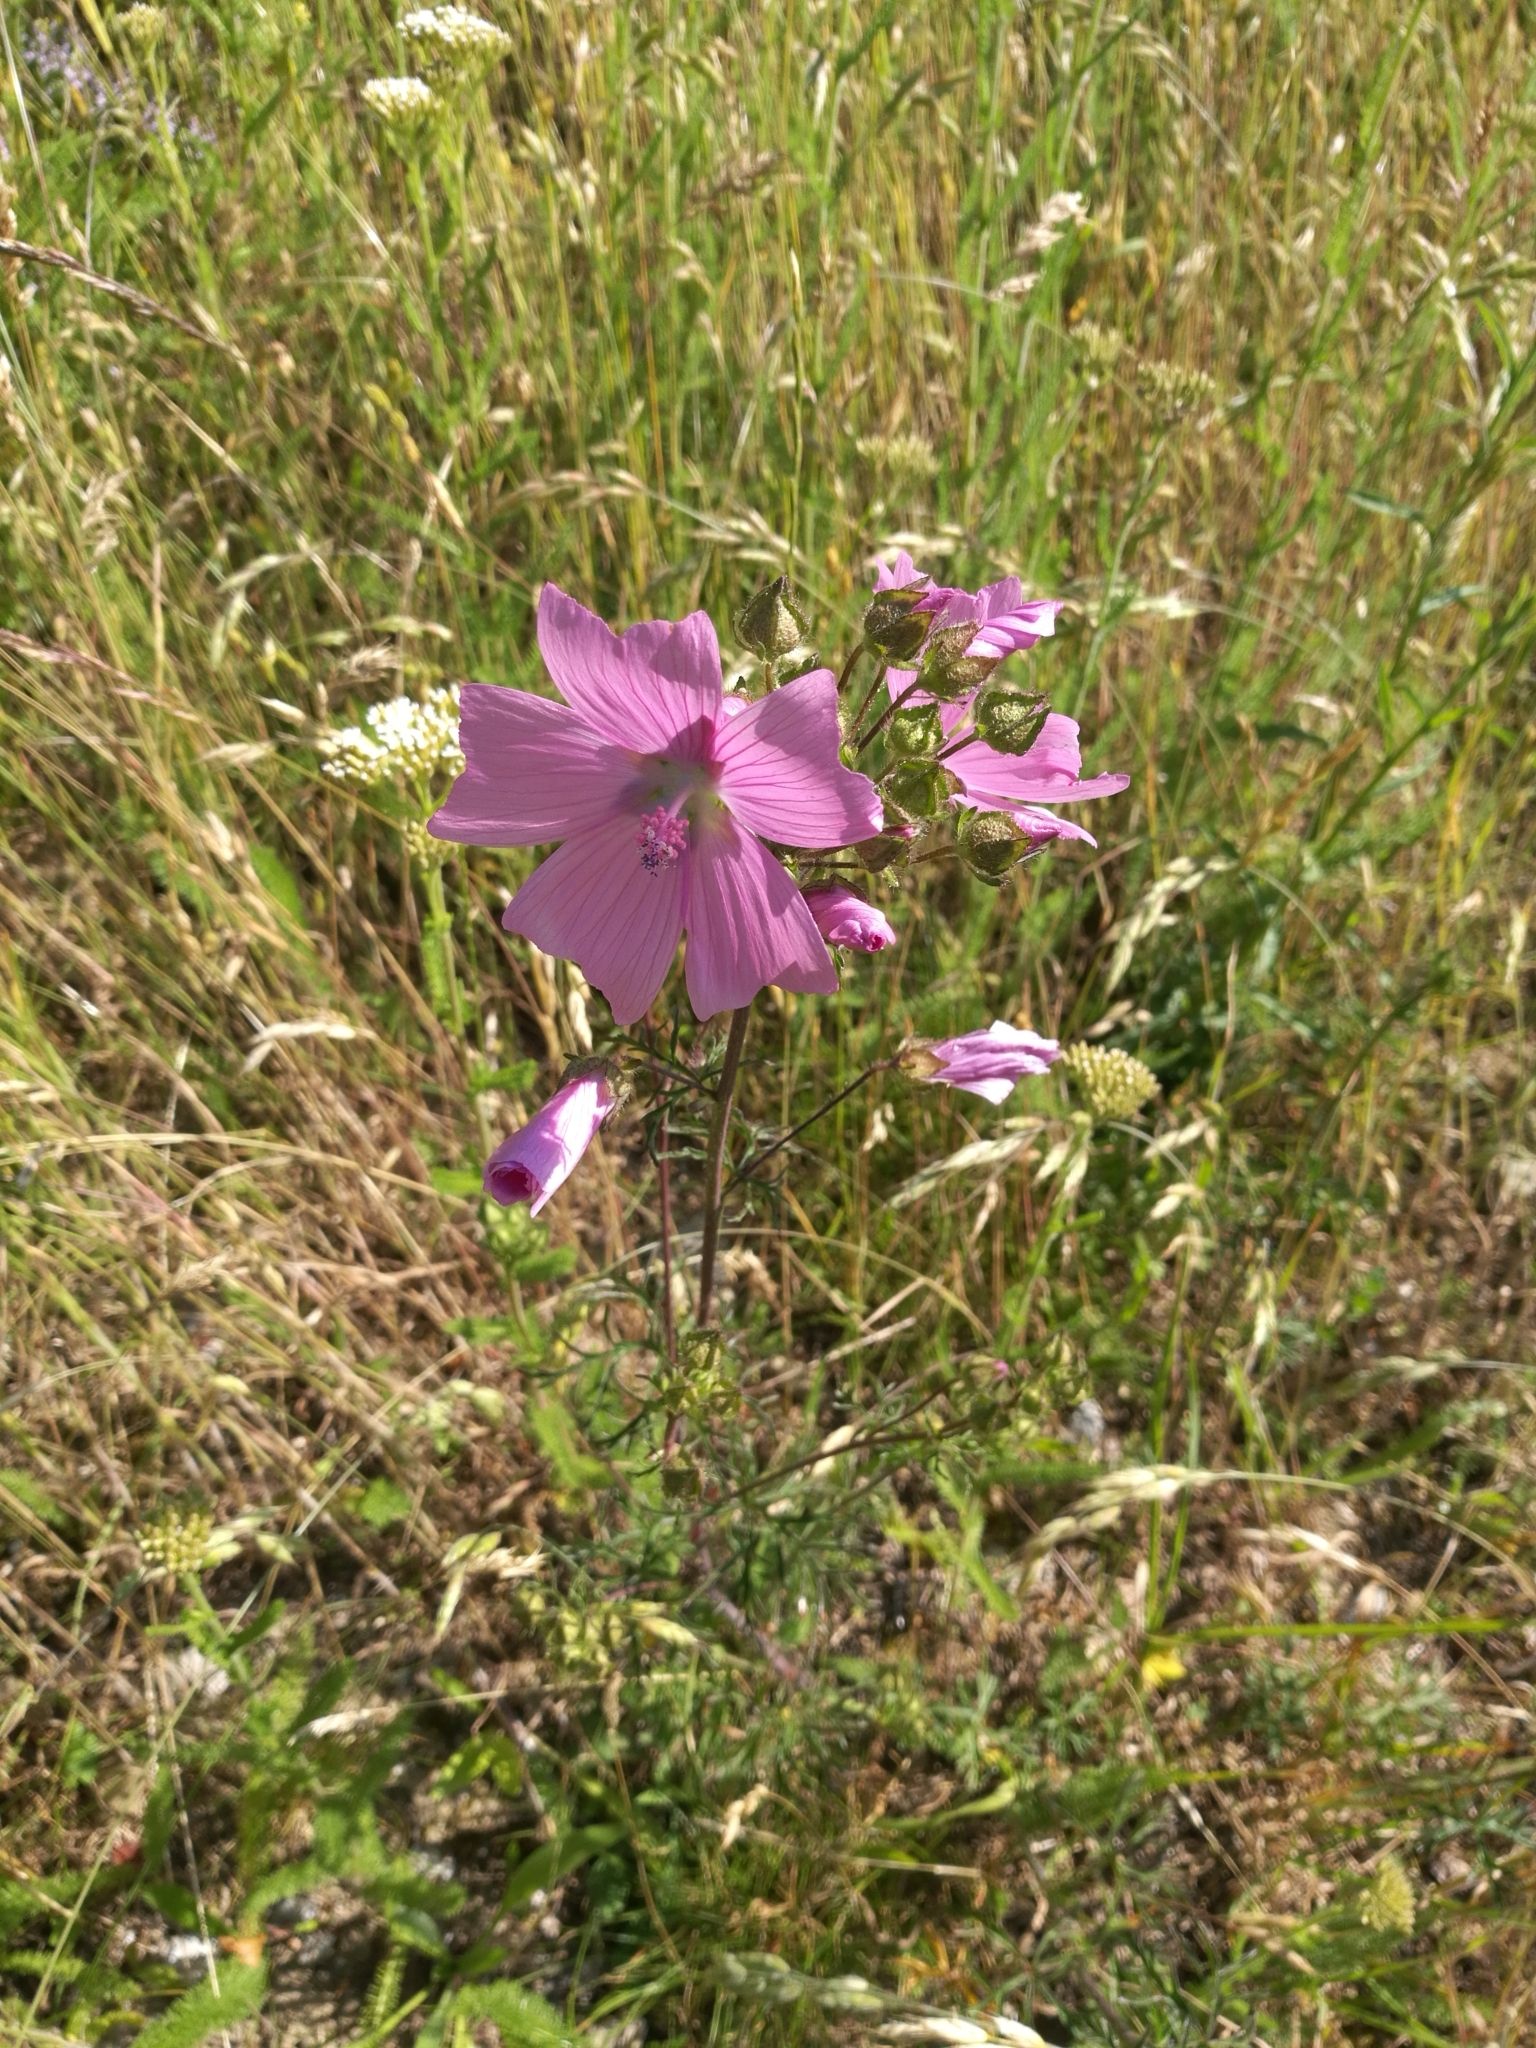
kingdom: Plantae
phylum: Tracheophyta
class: Magnoliopsida
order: Malvales
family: Malvaceae
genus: Malva
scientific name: Malva moschata
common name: Musk mallow
